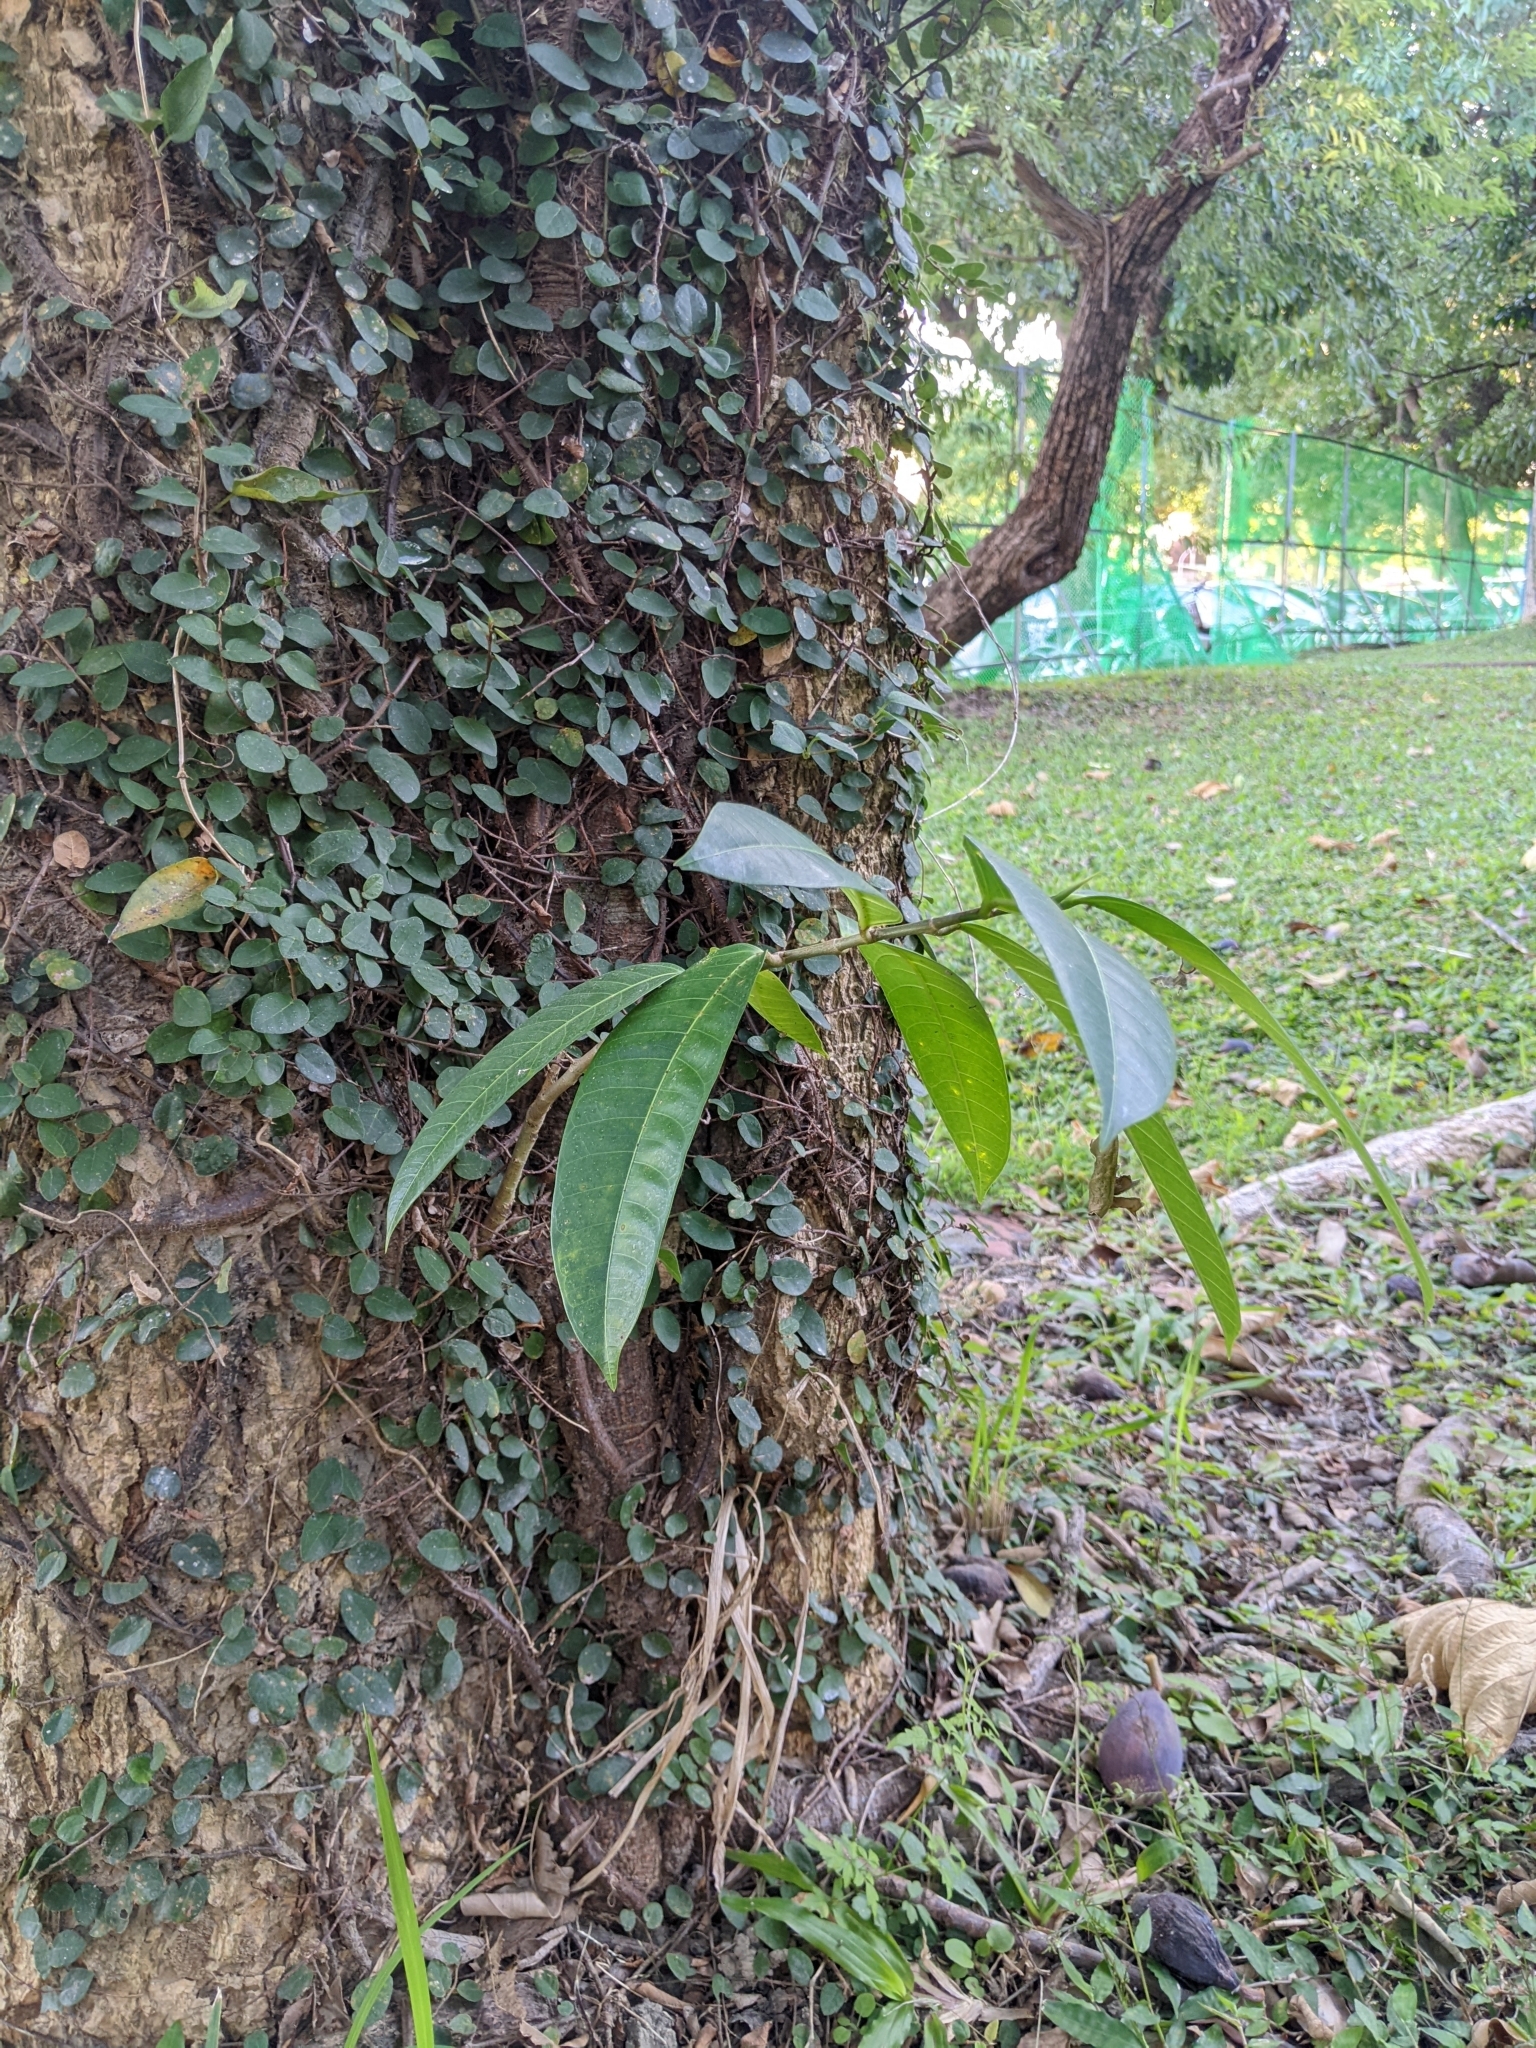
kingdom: Plantae
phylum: Tracheophyta
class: Magnoliopsida
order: Rosales
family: Moraceae
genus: Ficus
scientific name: Ficus virgata
